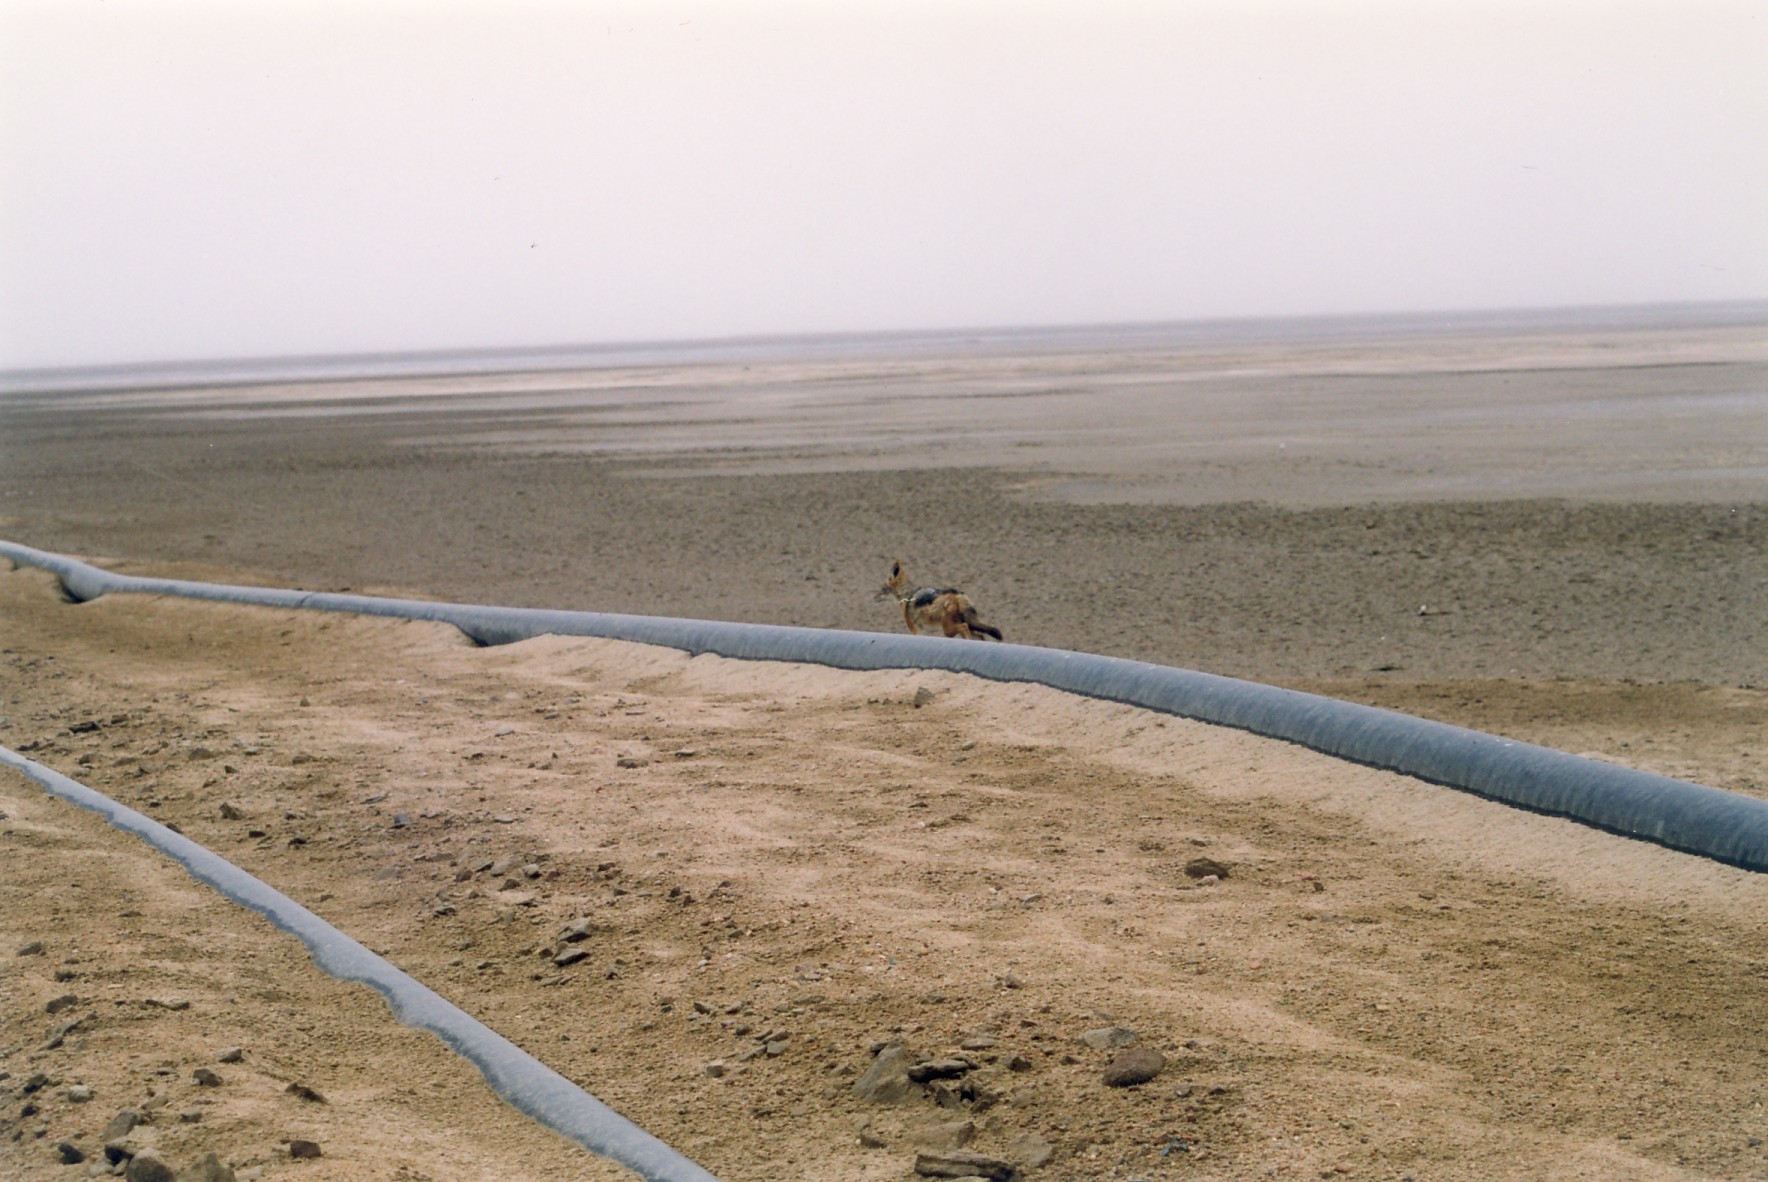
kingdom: Animalia
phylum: Chordata
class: Mammalia
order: Carnivora
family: Canidae
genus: Lupulella
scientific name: Lupulella
